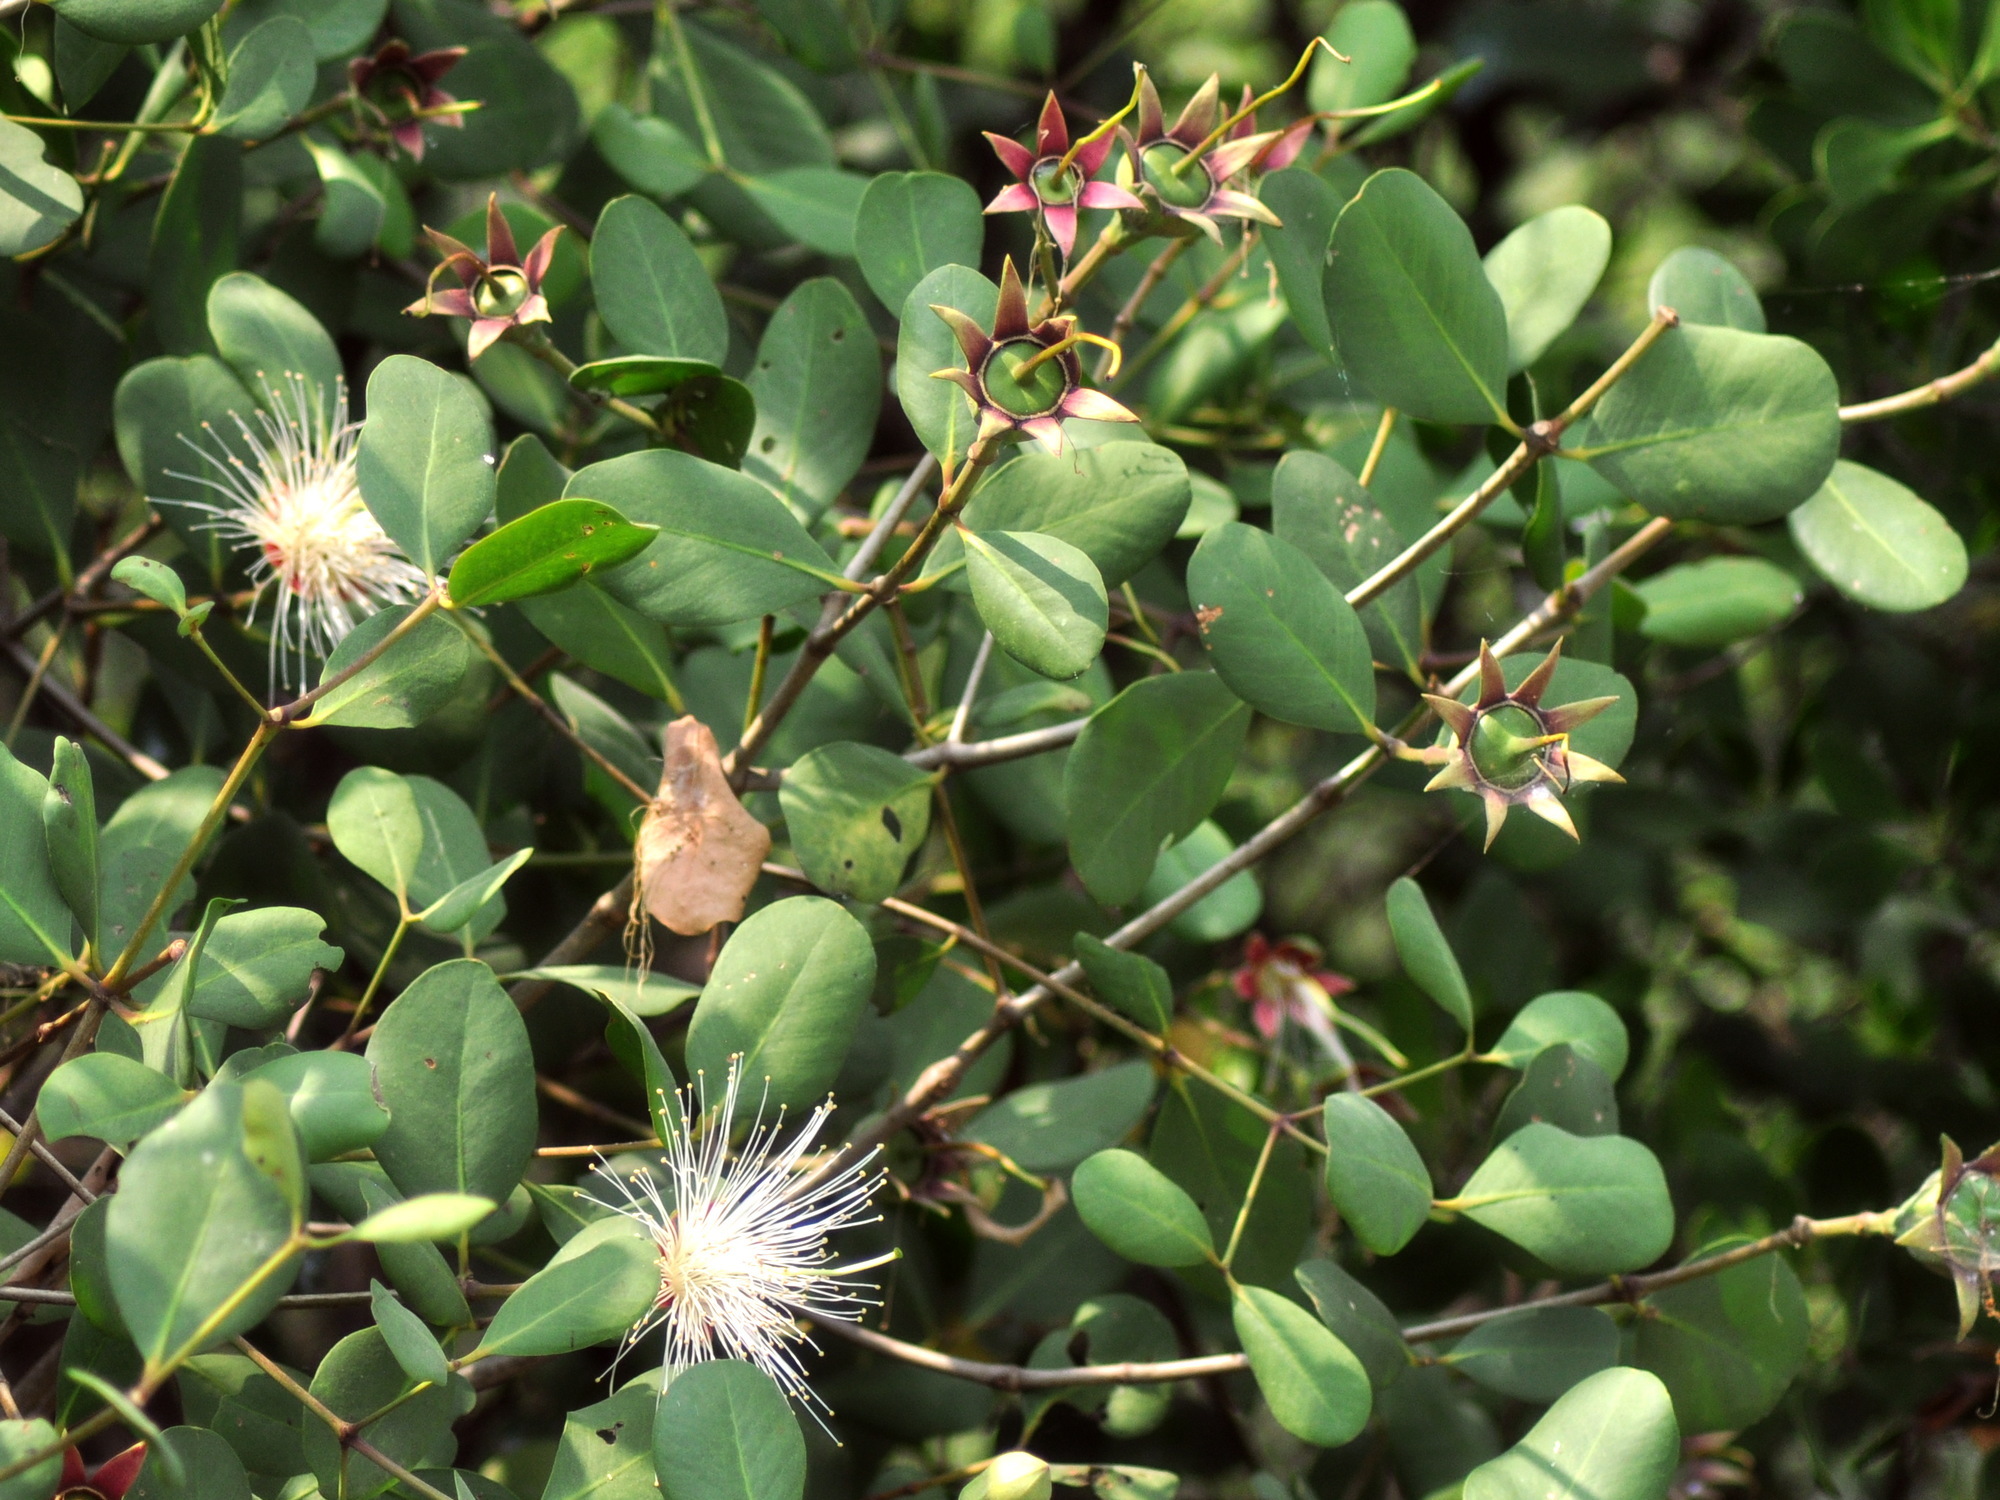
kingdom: Plantae
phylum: Tracheophyta
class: Magnoliopsida
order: Myrtales
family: Lythraceae
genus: Sonneratia
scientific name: Sonneratia alba
